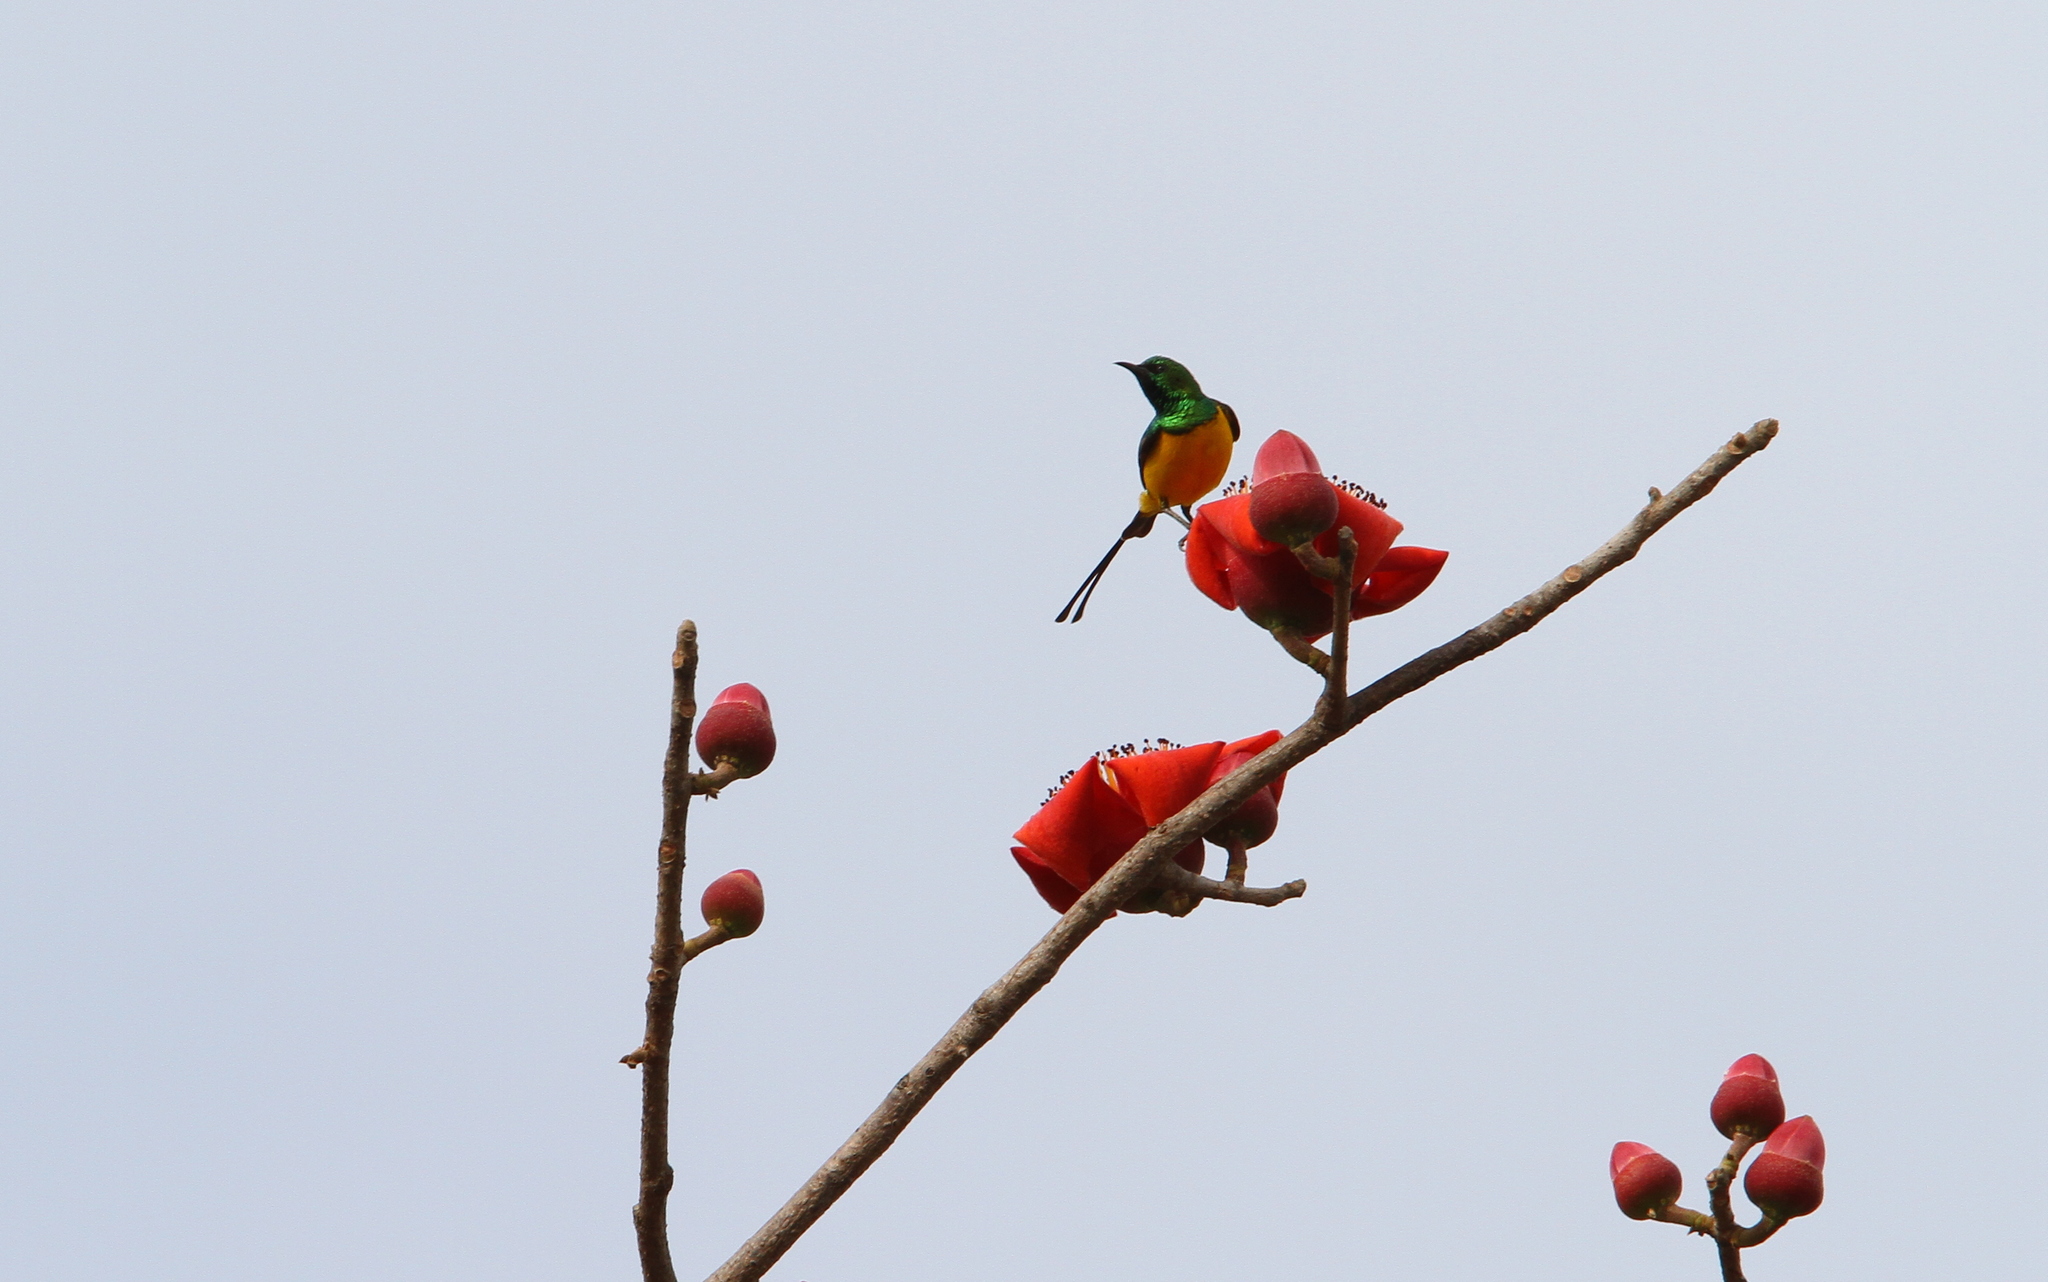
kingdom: Animalia
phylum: Chordata
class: Aves
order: Passeriformes
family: Nectariniidae
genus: Hedydipna
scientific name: Hedydipna platura
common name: Pygmy sunbird
